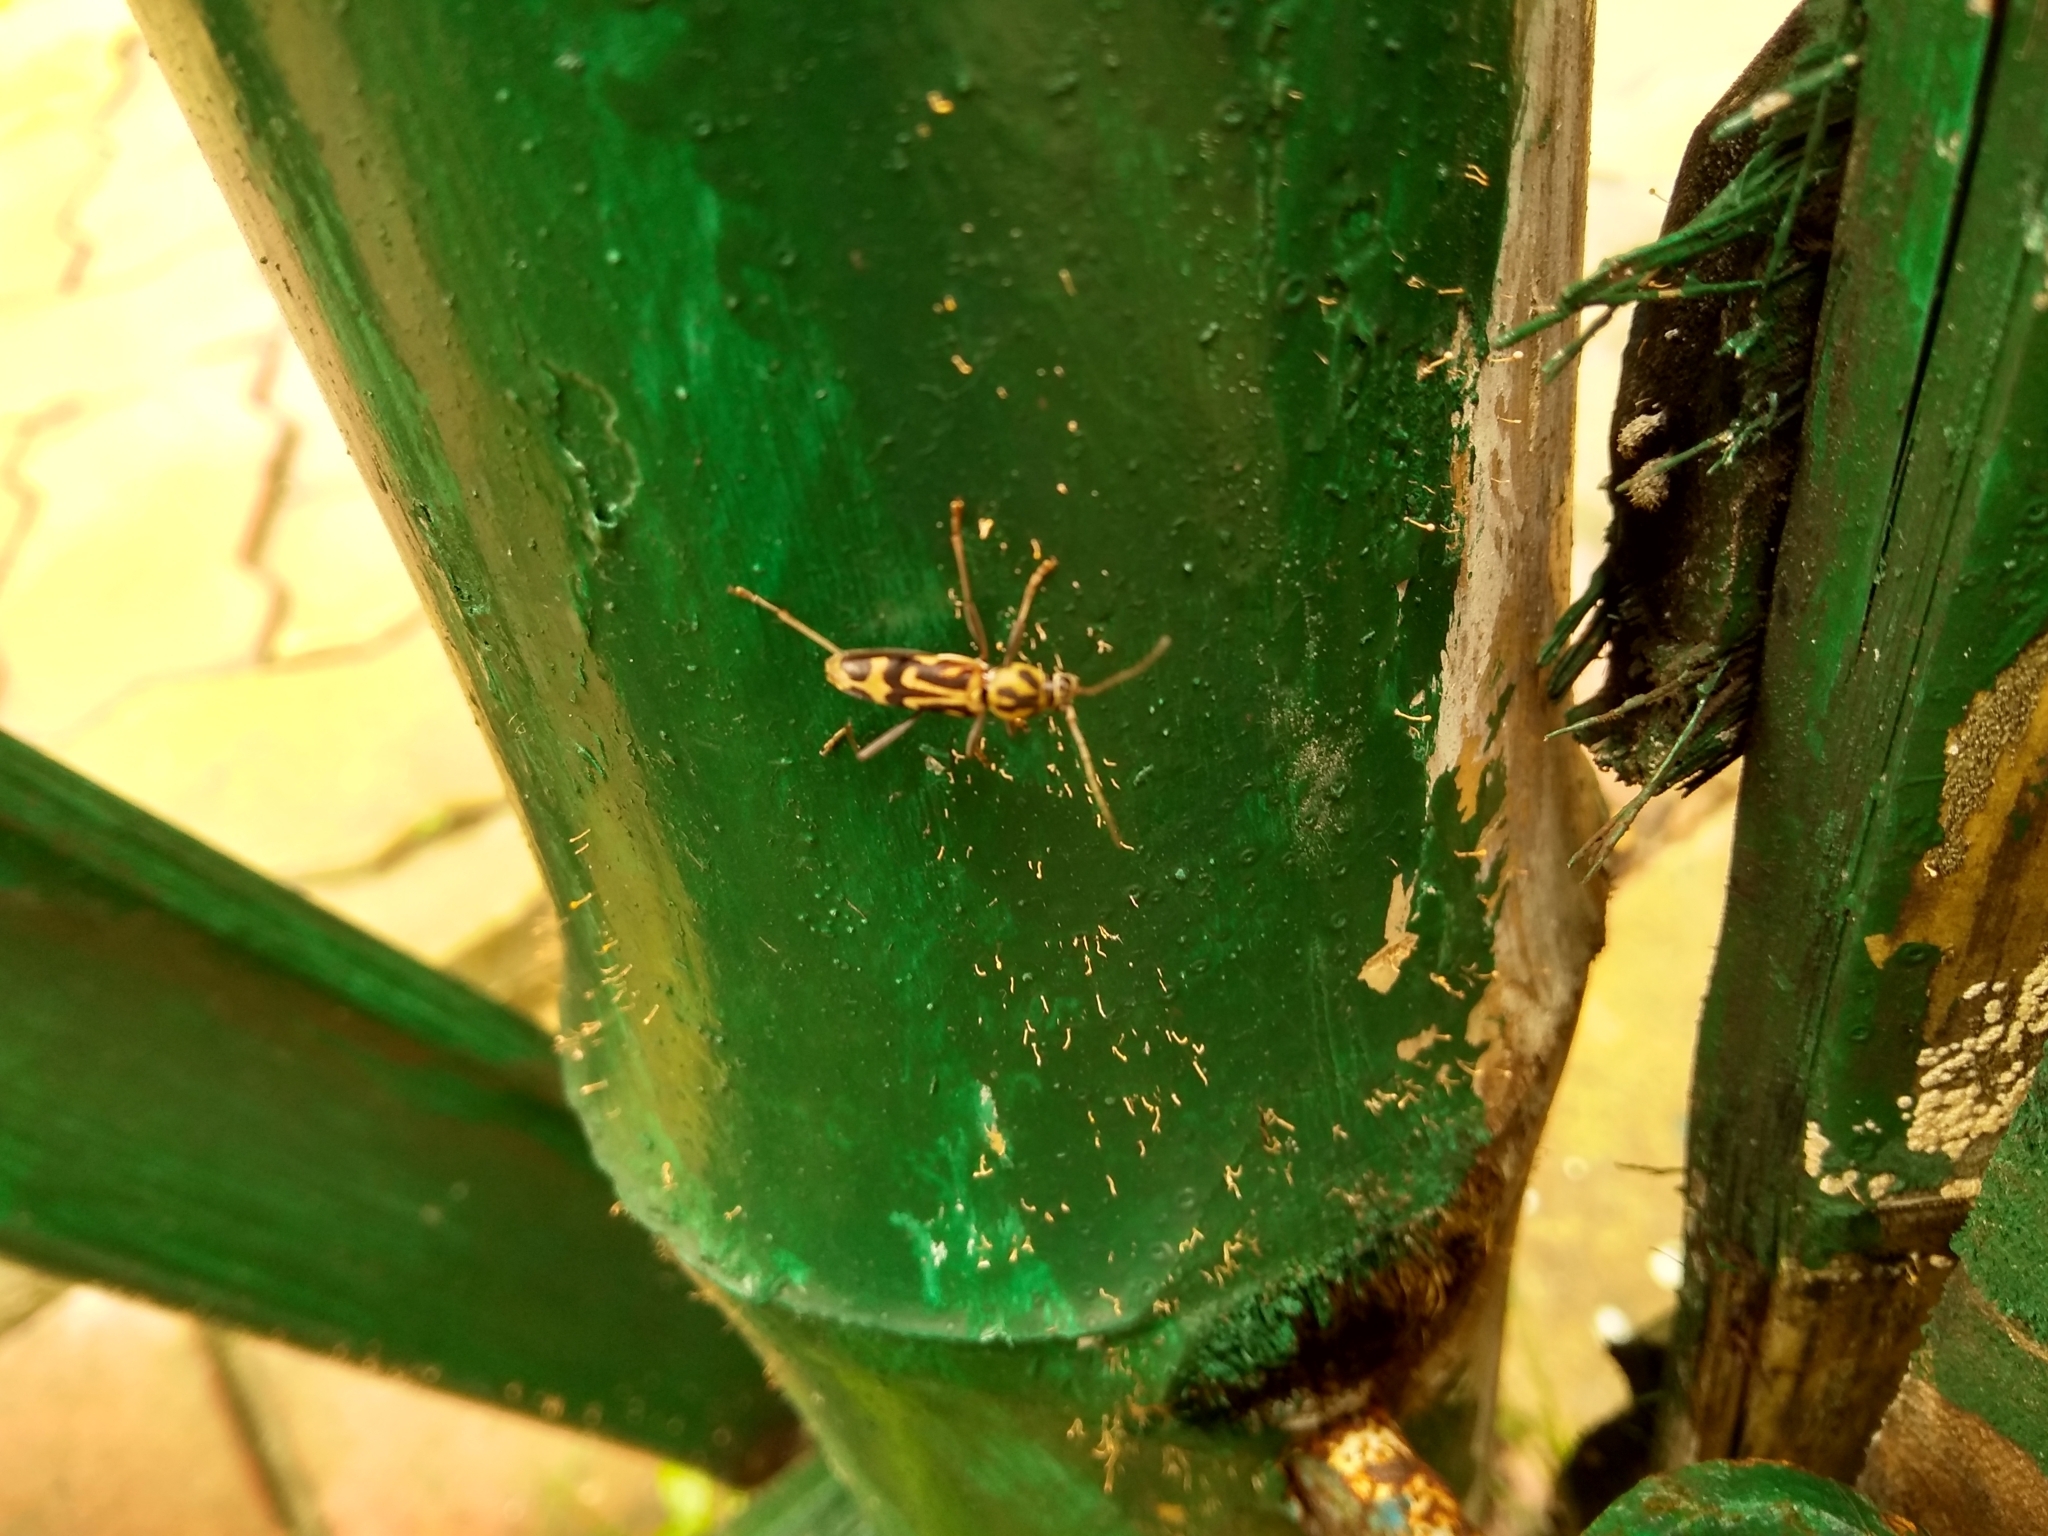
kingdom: Animalia
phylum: Arthropoda
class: Insecta
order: Coleoptera
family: Cerambycidae
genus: Chlorophorus
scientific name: Chlorophorus annularis
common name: Bamboo longhorn beetle
